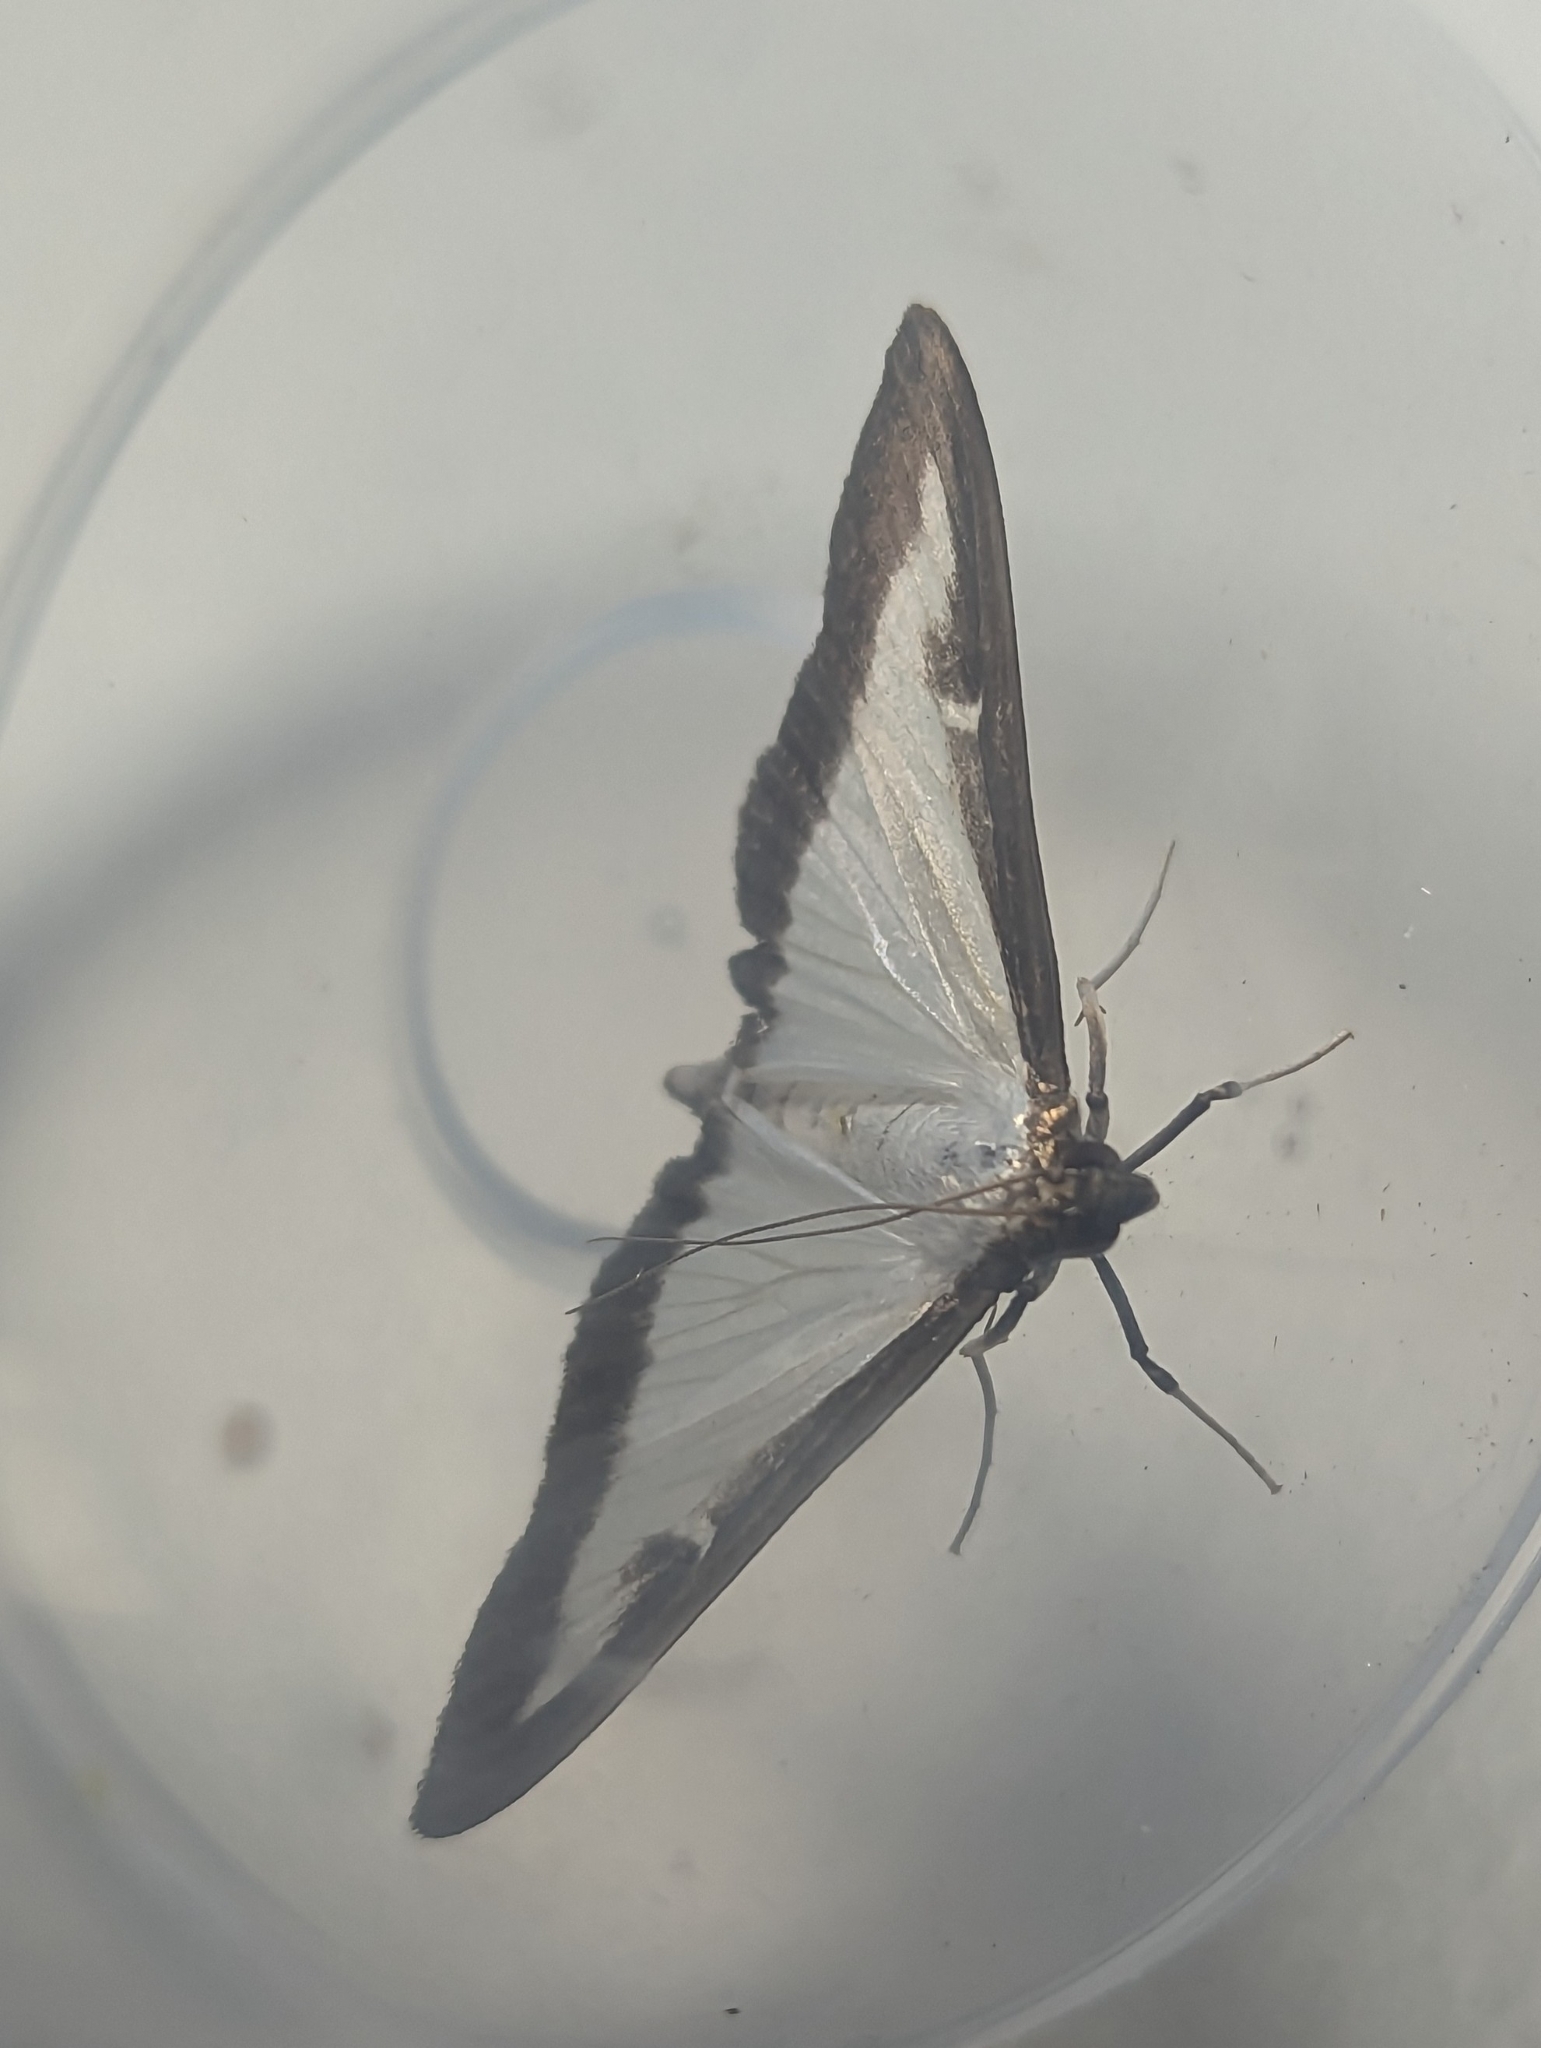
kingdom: Animalia
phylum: Arthropoda
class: Insecta
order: Lepidoptera
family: Crambidae
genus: Cydalima
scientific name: Cydalima perspectalis
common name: Box tree moth
